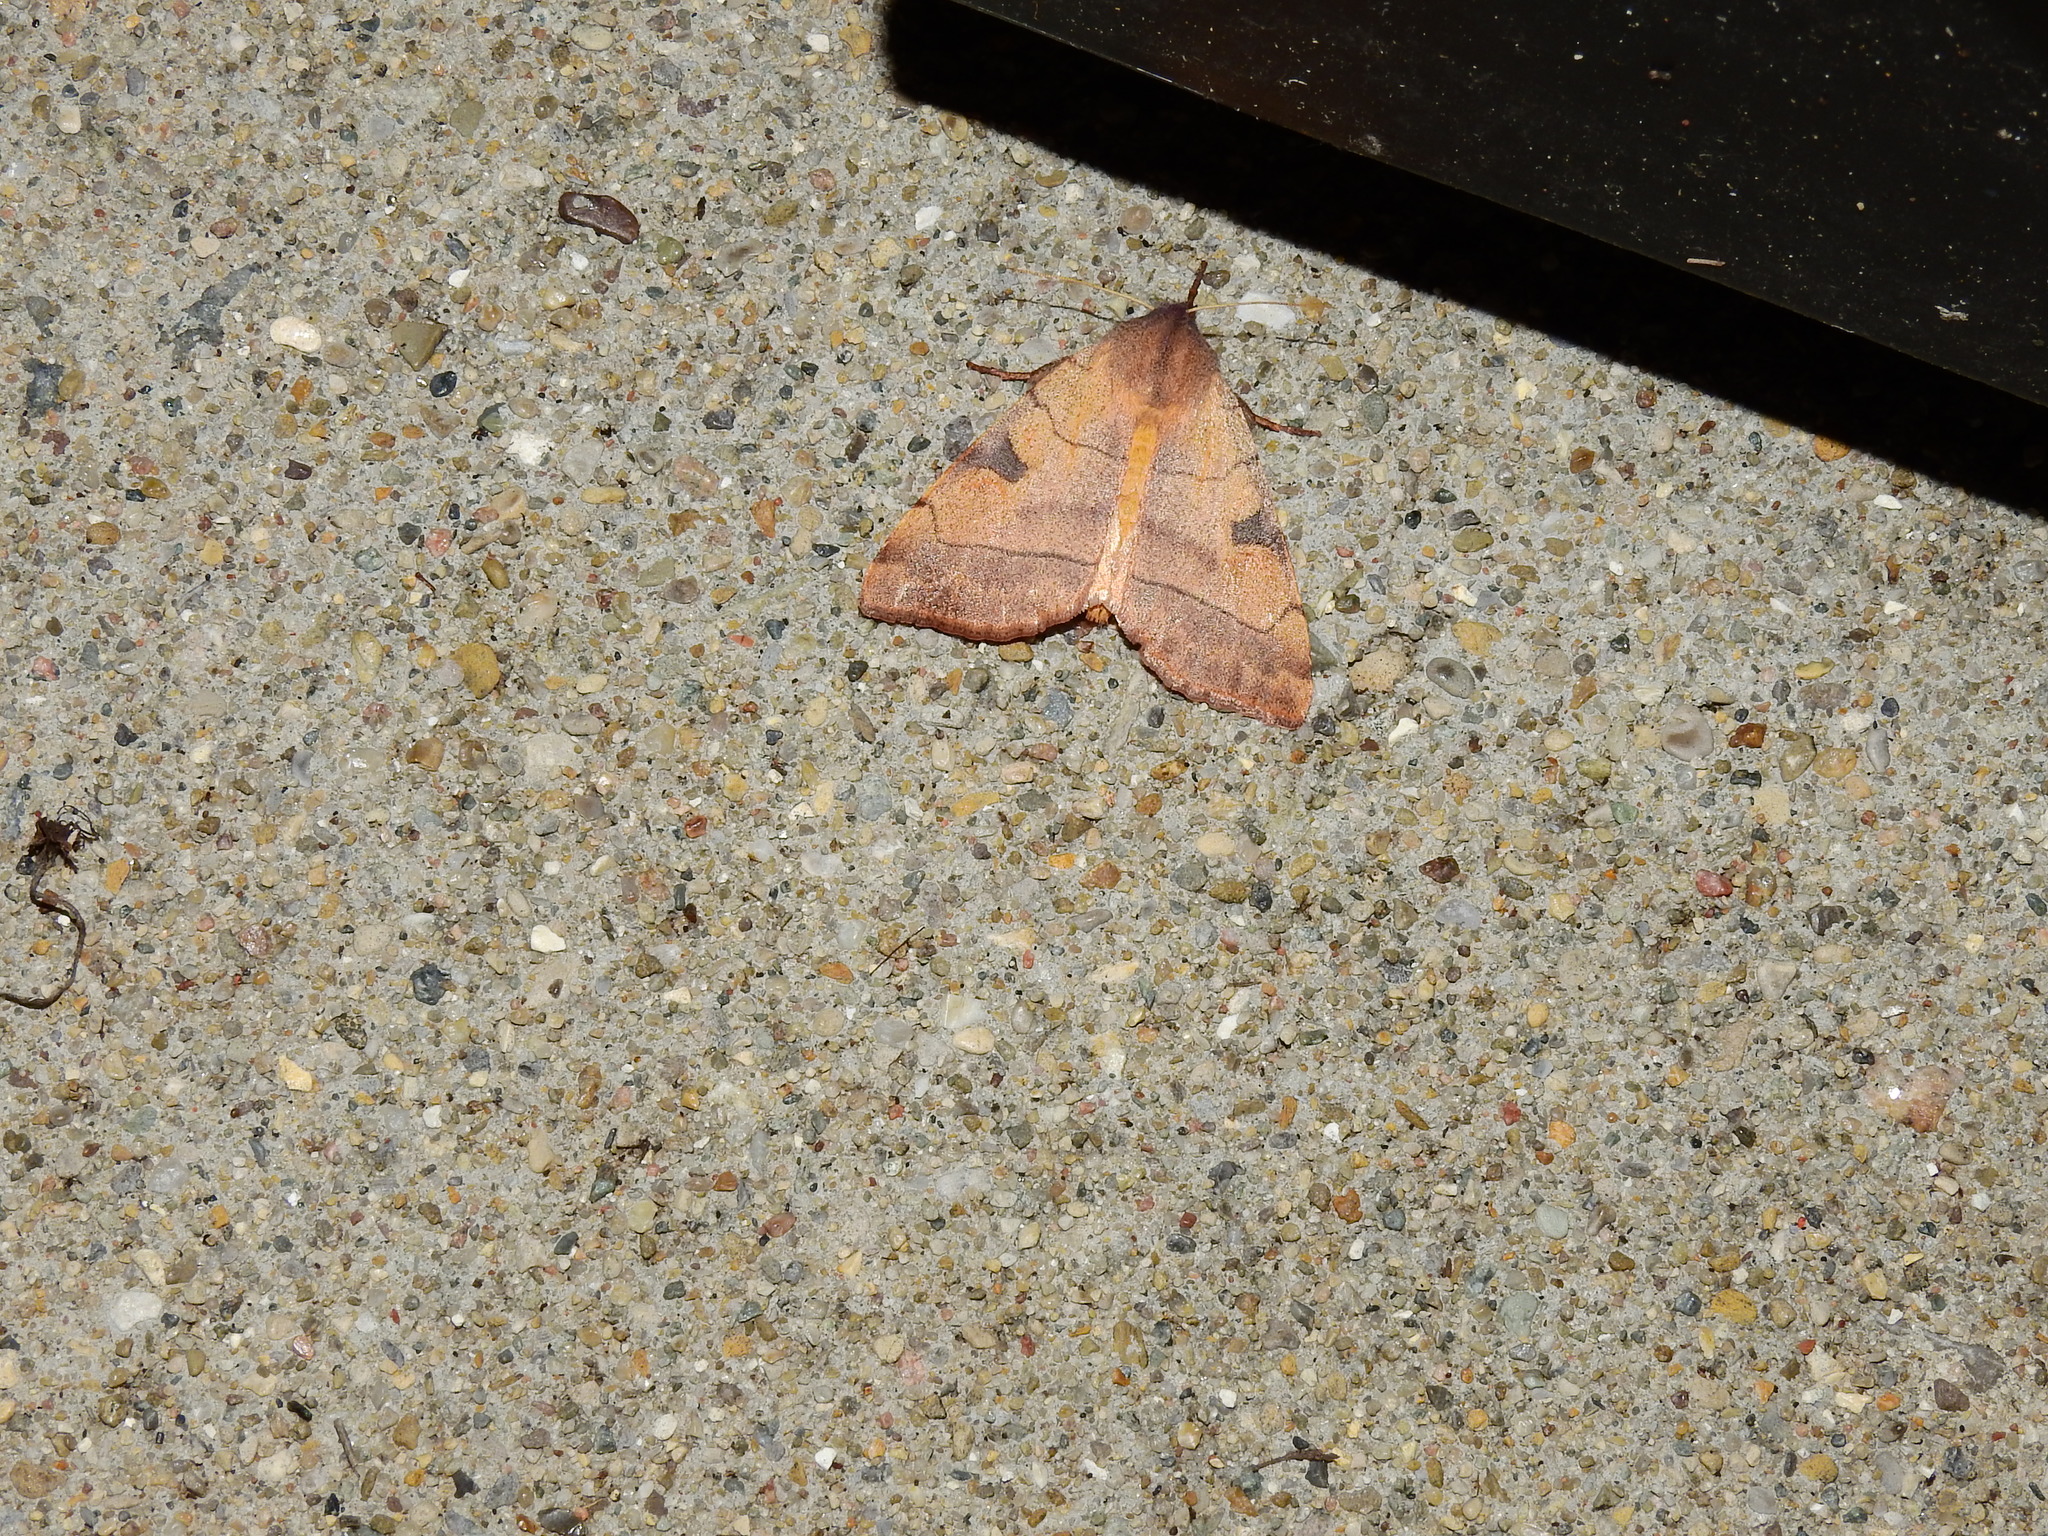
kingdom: Animalia
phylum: Arthropoda
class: Insecta
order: Lepidoptera
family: Noctuidae
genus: Choephora
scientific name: Choephora fungorum
